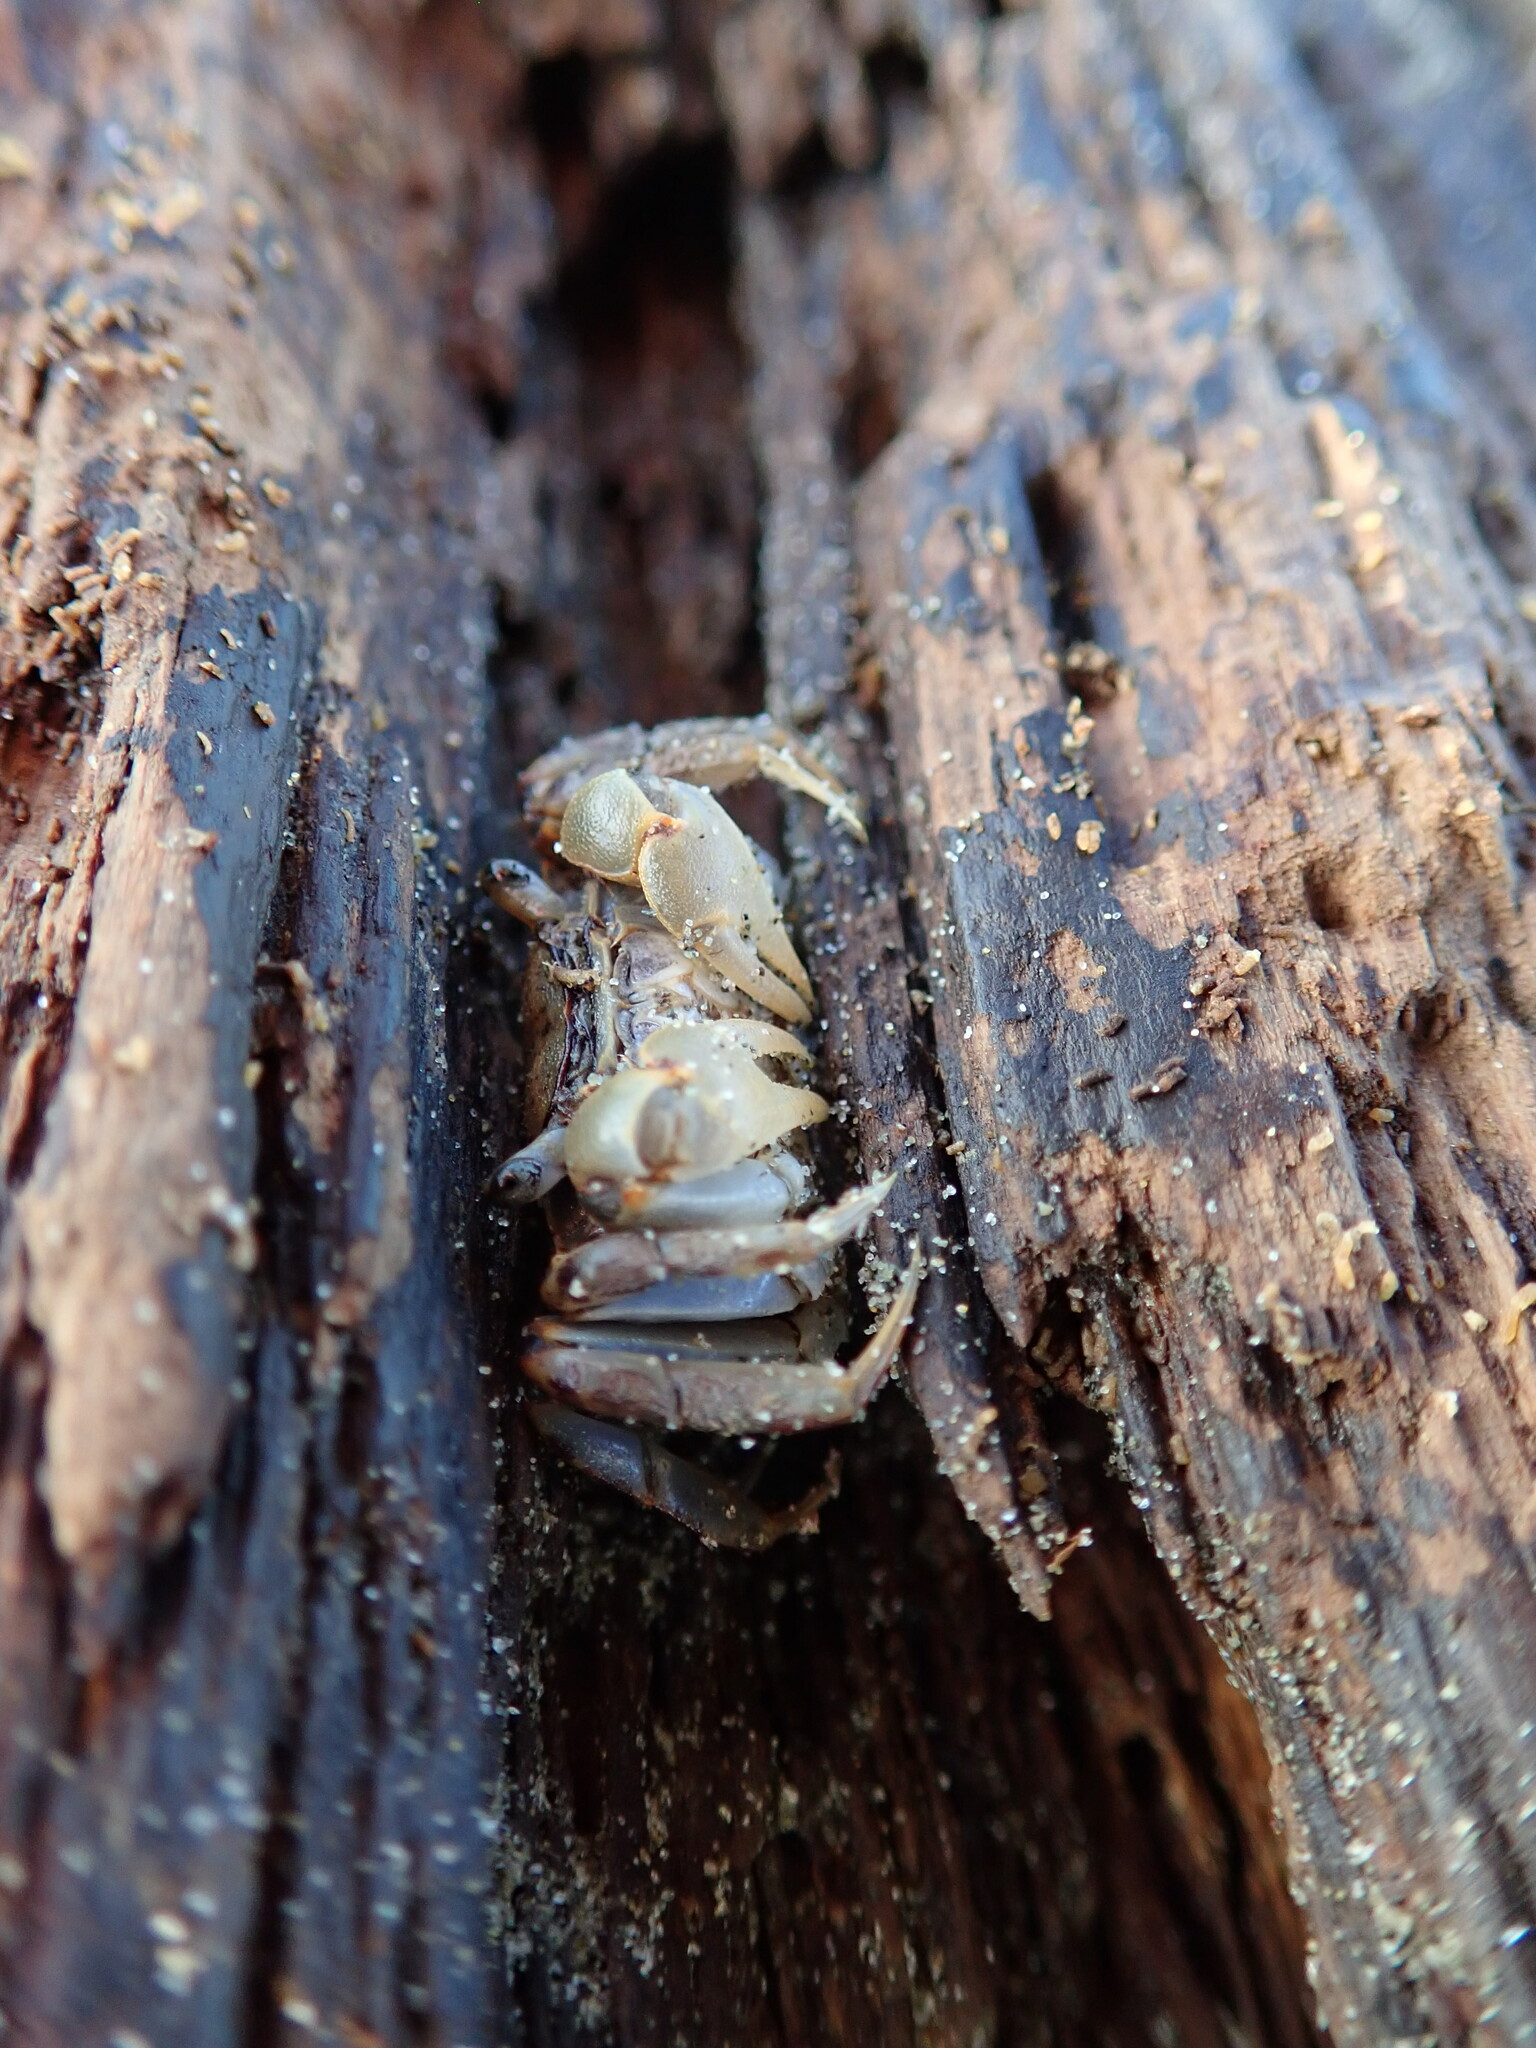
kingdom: Animalia
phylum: Arthropoda
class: Malacostraca
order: Decapoda
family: Varunidae
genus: Austrohelice
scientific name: Austrohelice crassa
